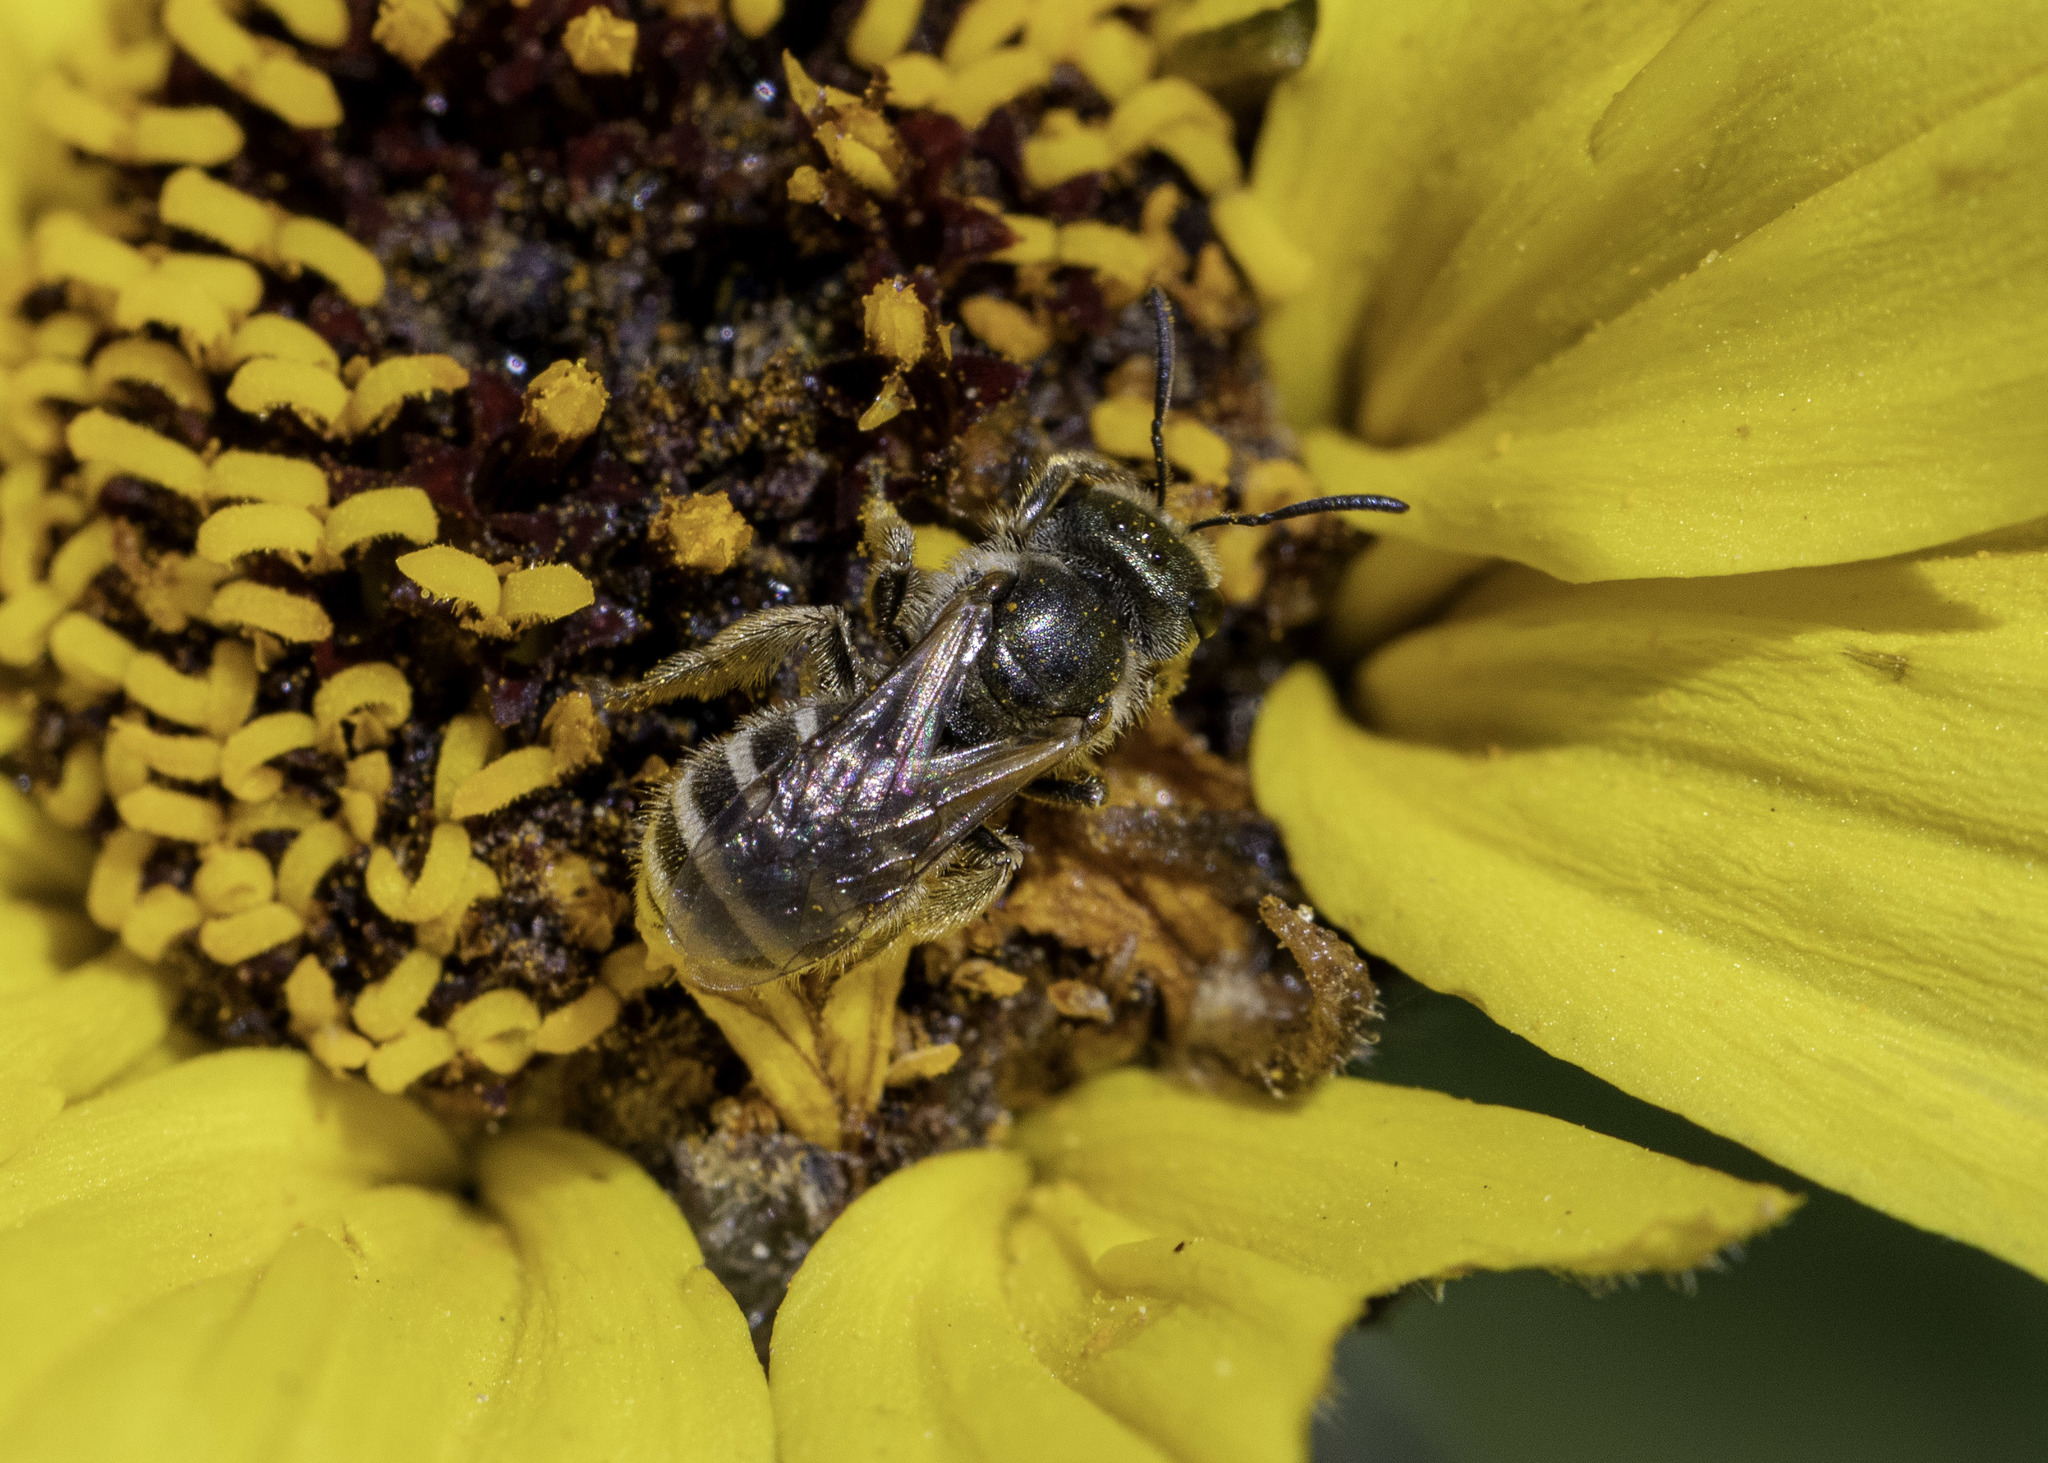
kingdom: Animalia
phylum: Arthropoda
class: Insecta
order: Hymenoptera
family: Halictidae
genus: Halictus
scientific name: Halictus tripartitus
